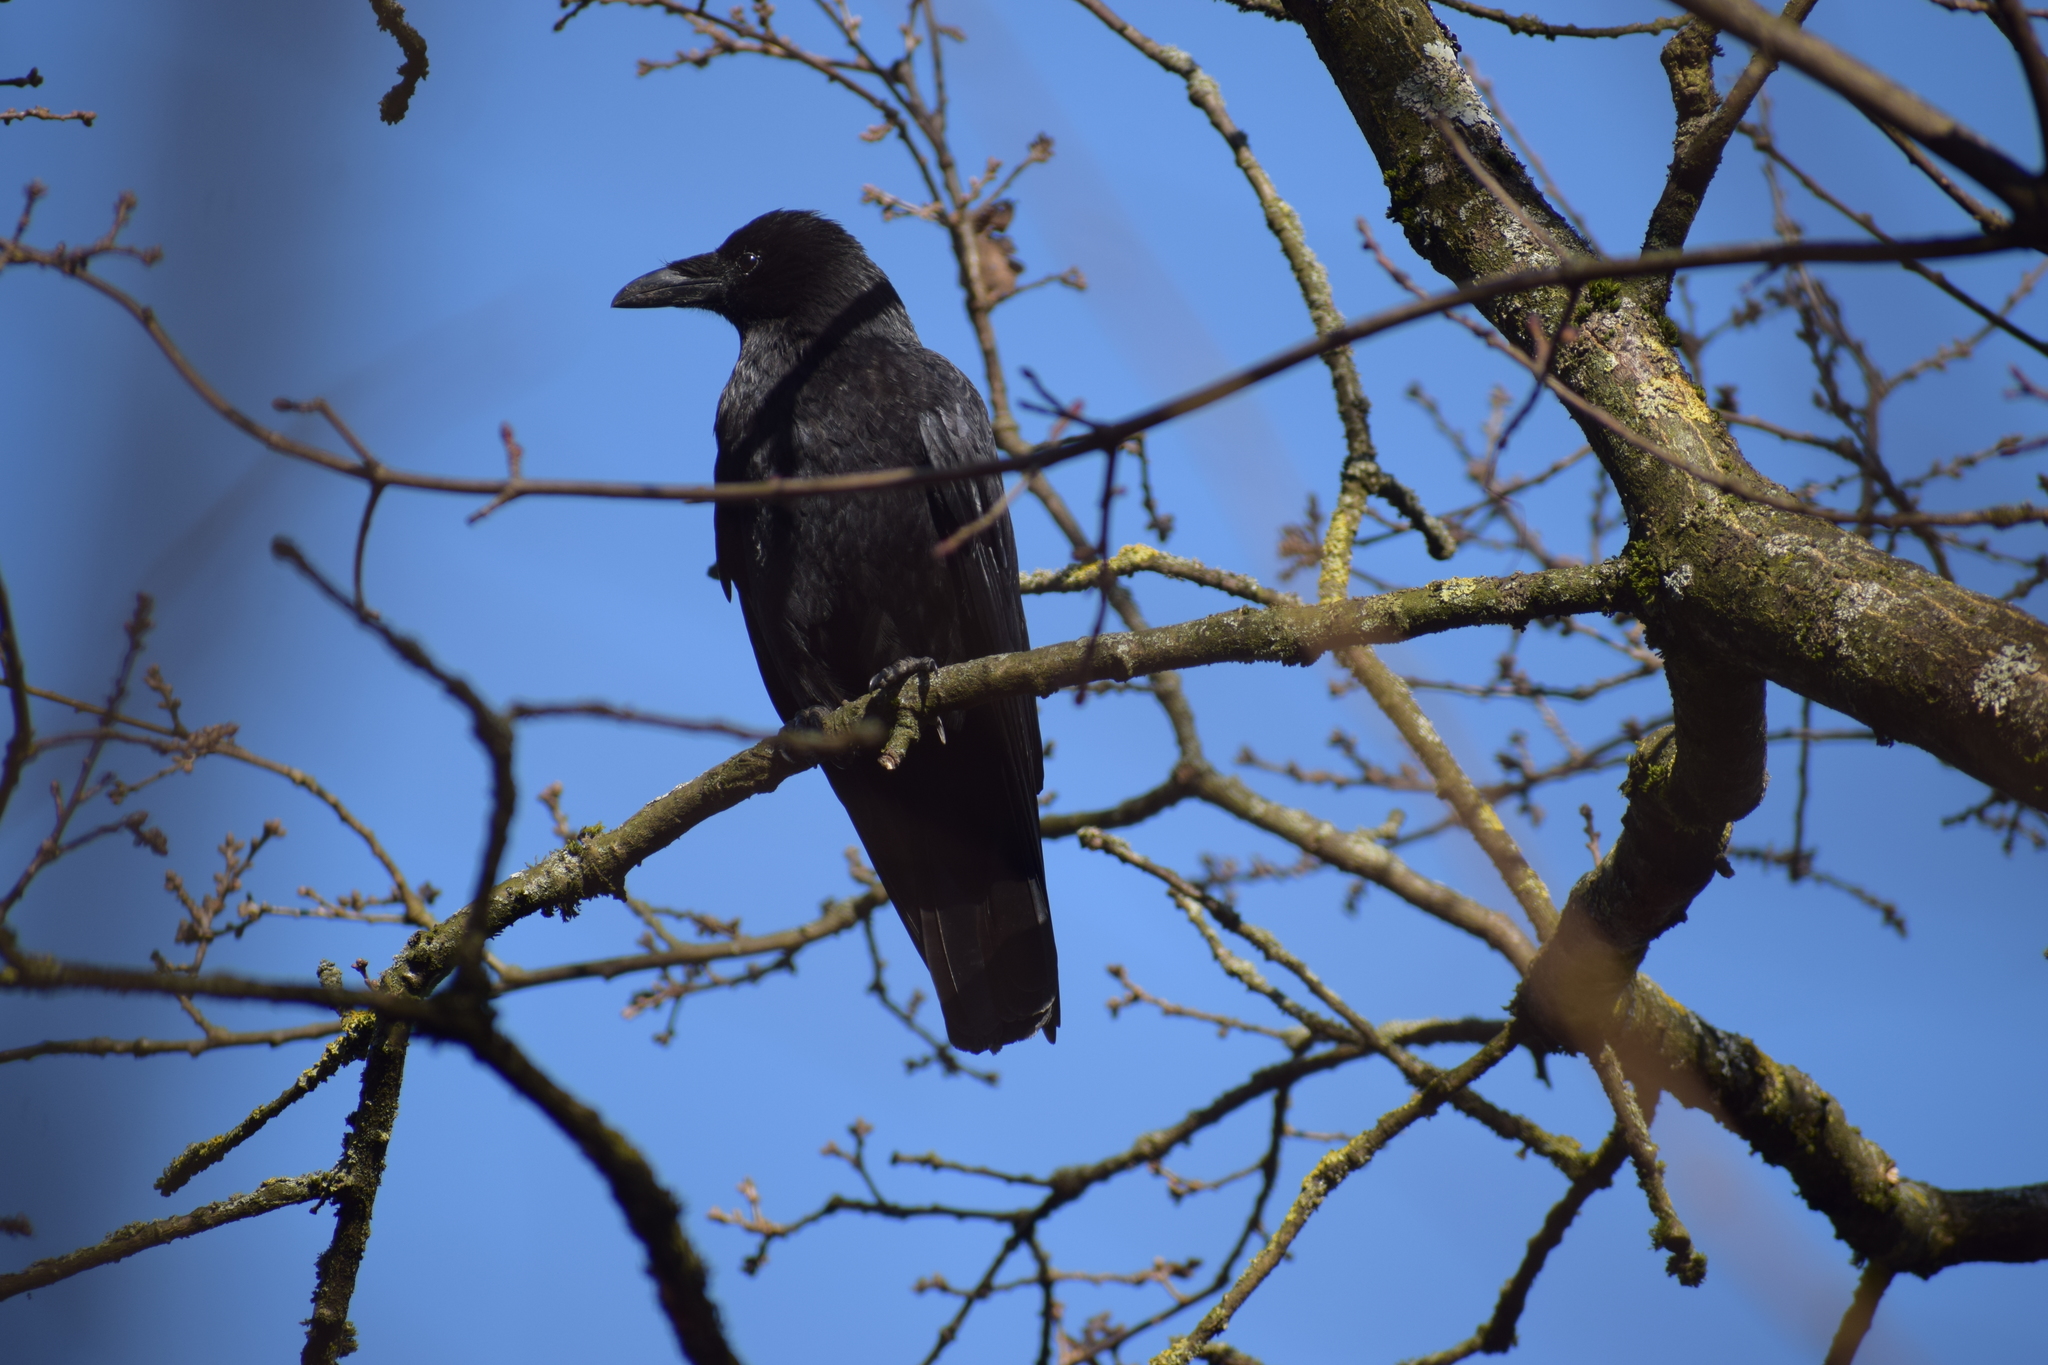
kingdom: Animalia
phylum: Chordata
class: Aves
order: Passeriformes
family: Corvidae
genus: Corvus
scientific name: Corvus corone
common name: Carrion crow
